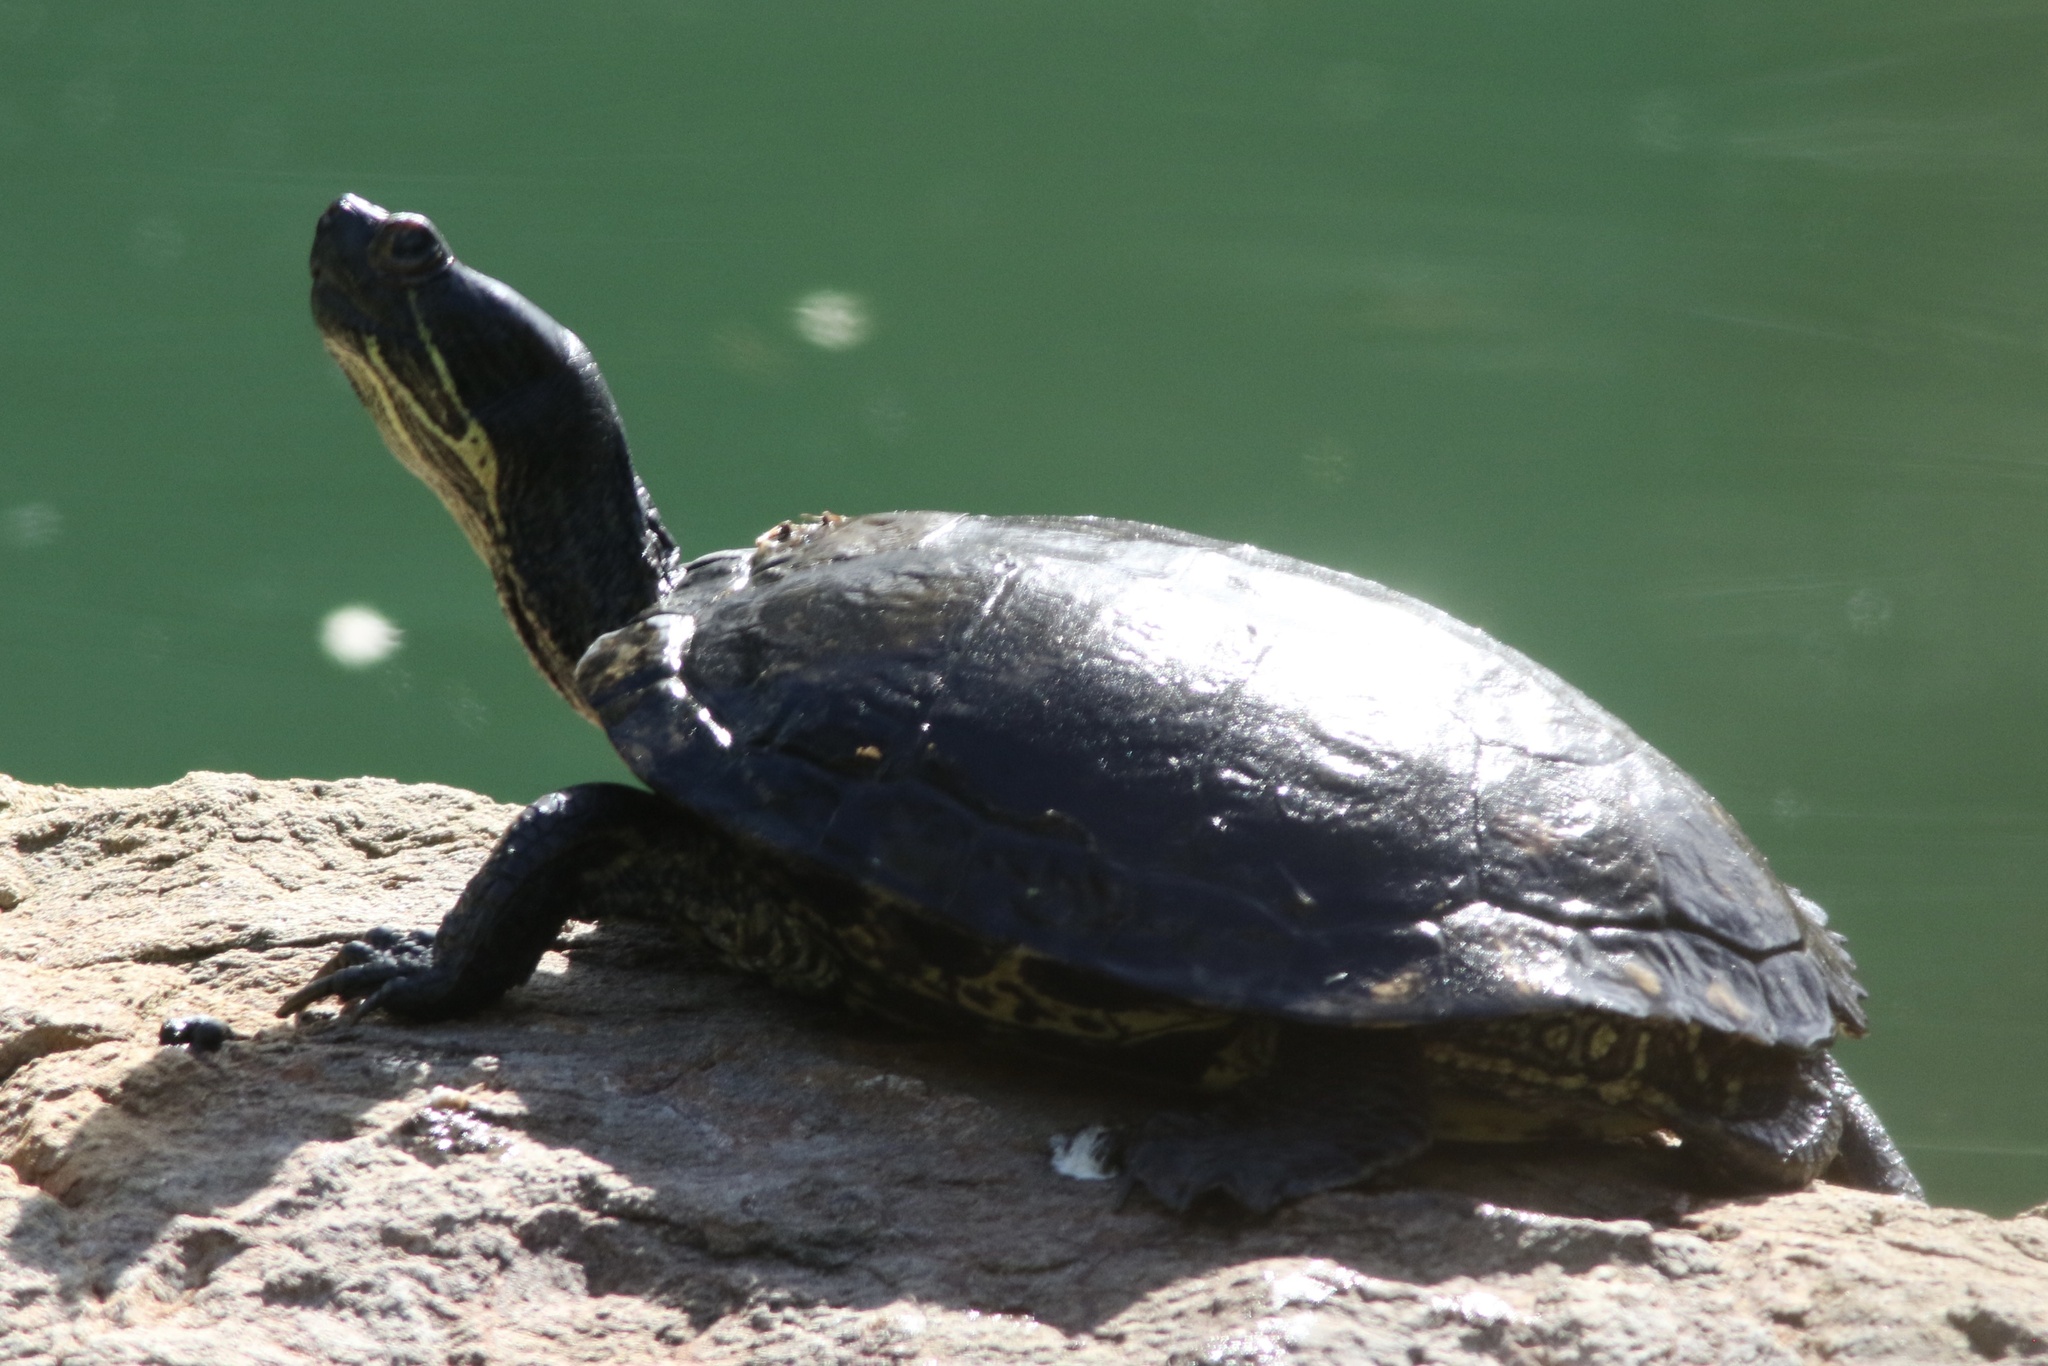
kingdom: Animalia
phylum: Chordata
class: Testudines
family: Emydidae
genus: Trachemys
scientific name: Trachemys scripta
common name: Slider
